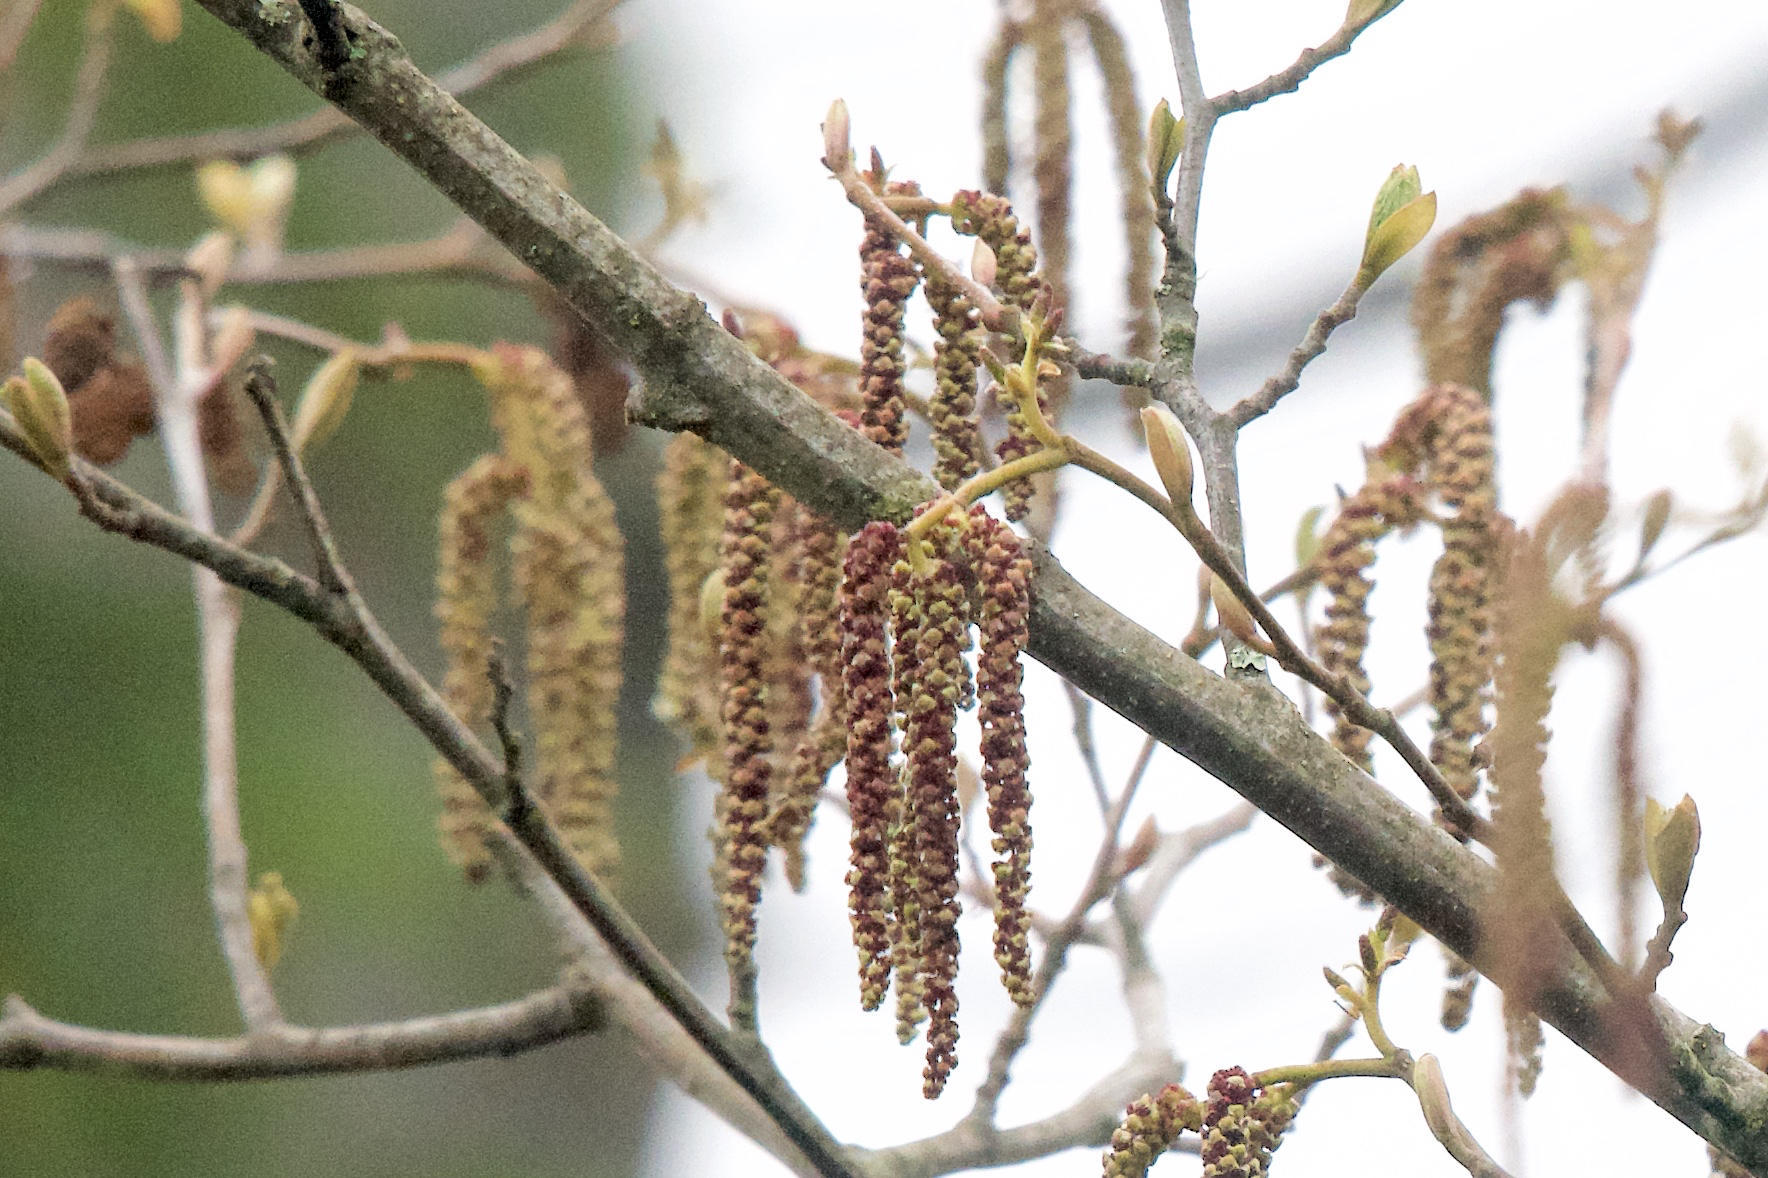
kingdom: Plantae
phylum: Tracheophyta
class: Magnoliopsida
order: Fagales
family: Betulaceae
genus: Alnus
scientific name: Alnus rubra
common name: Red alder
